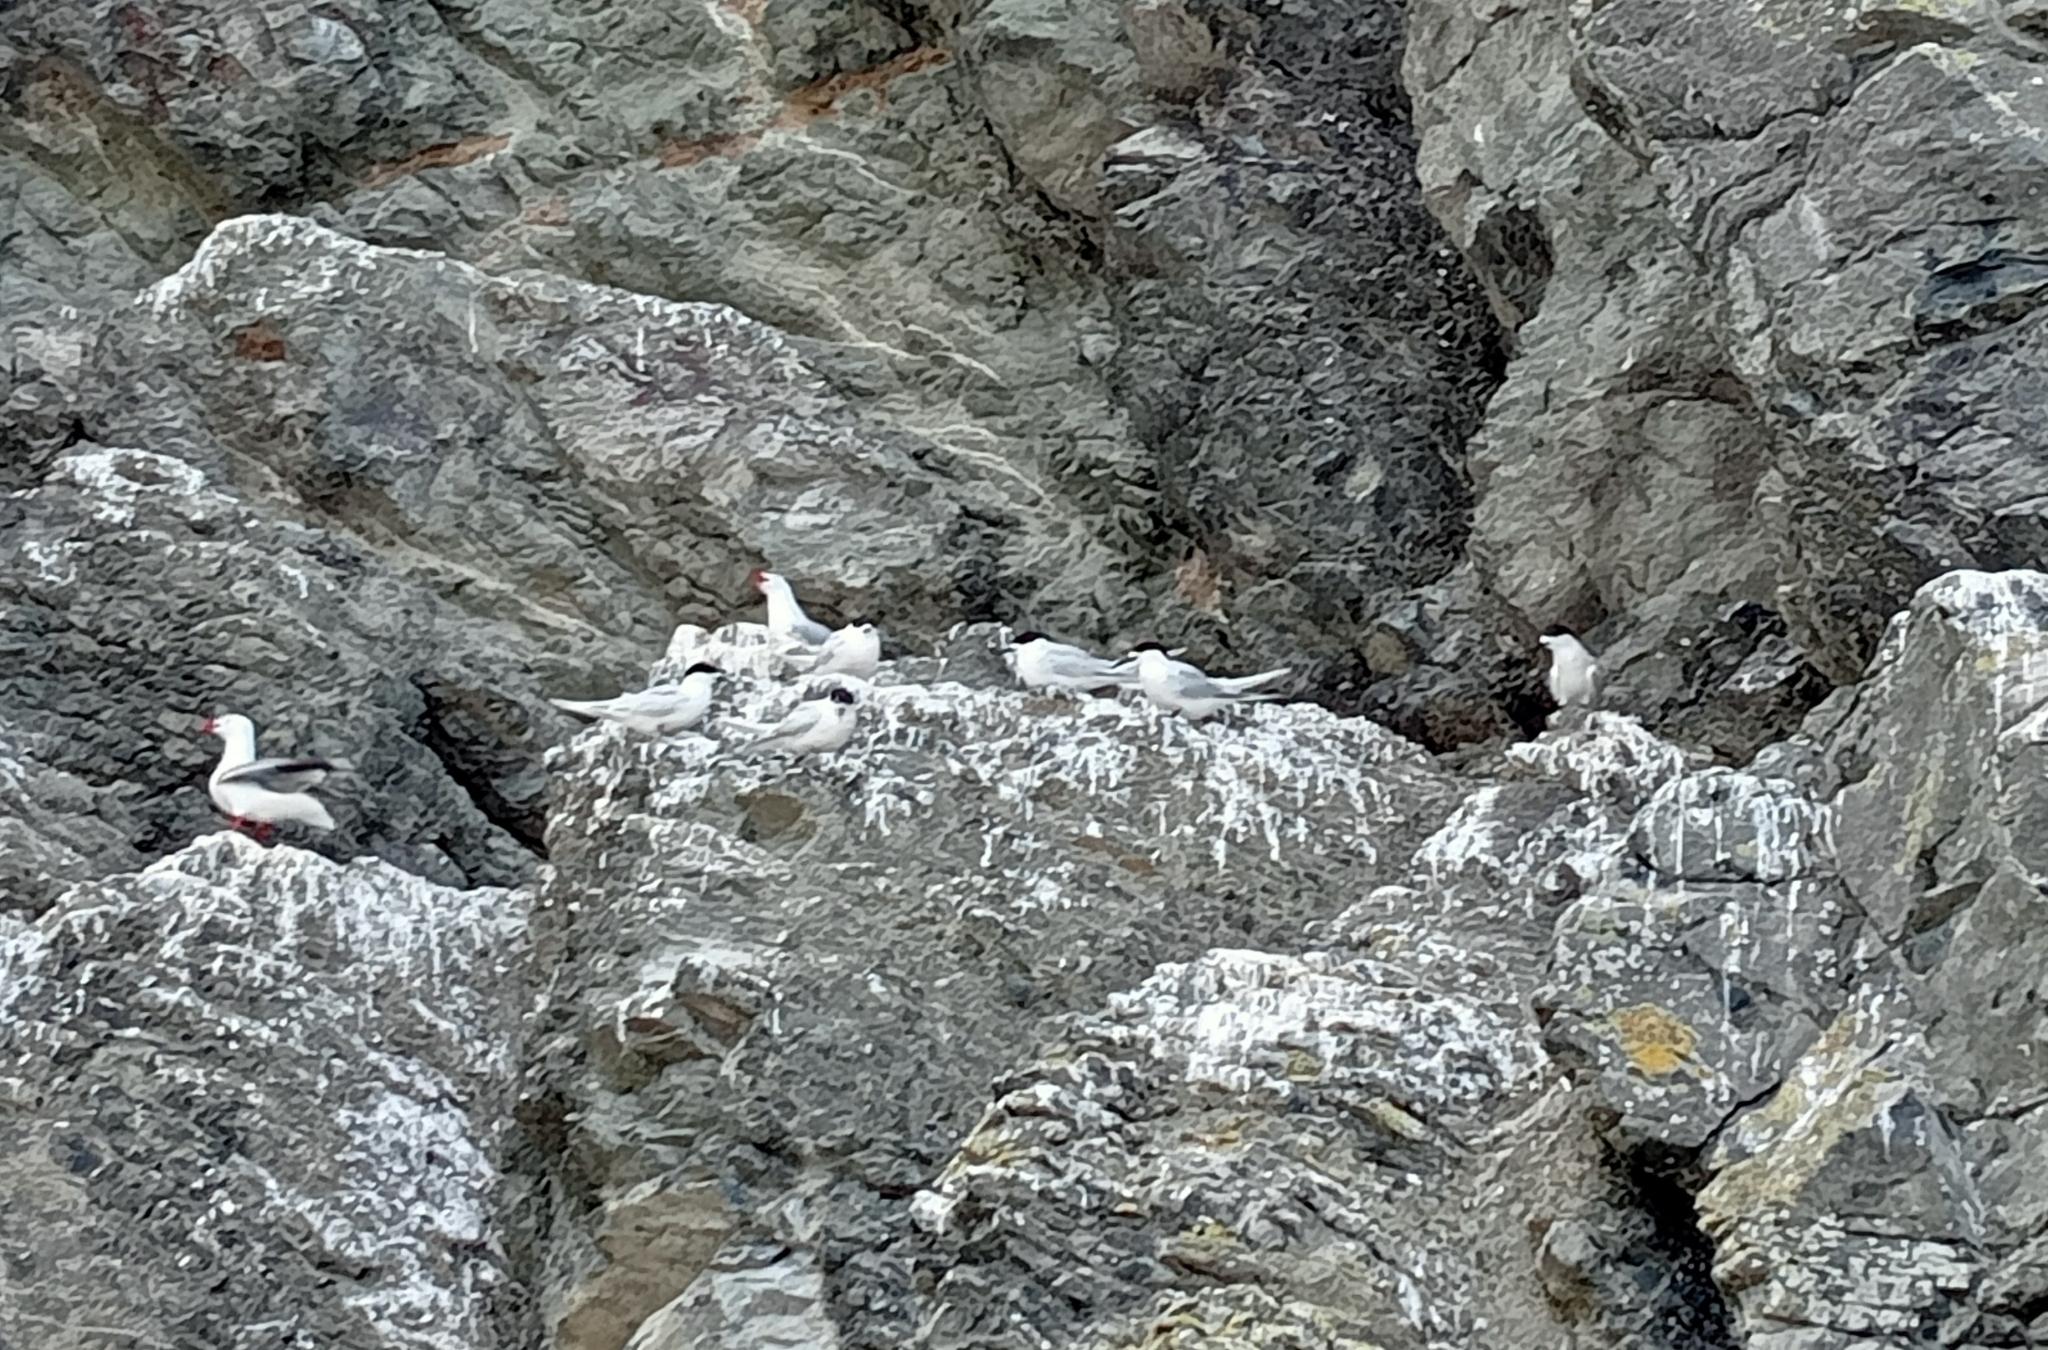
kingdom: Animalia
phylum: Chordata
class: Aves
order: Charadriiformes
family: Laridae
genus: Sterna
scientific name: Sterna striata
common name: White-fronted tern
